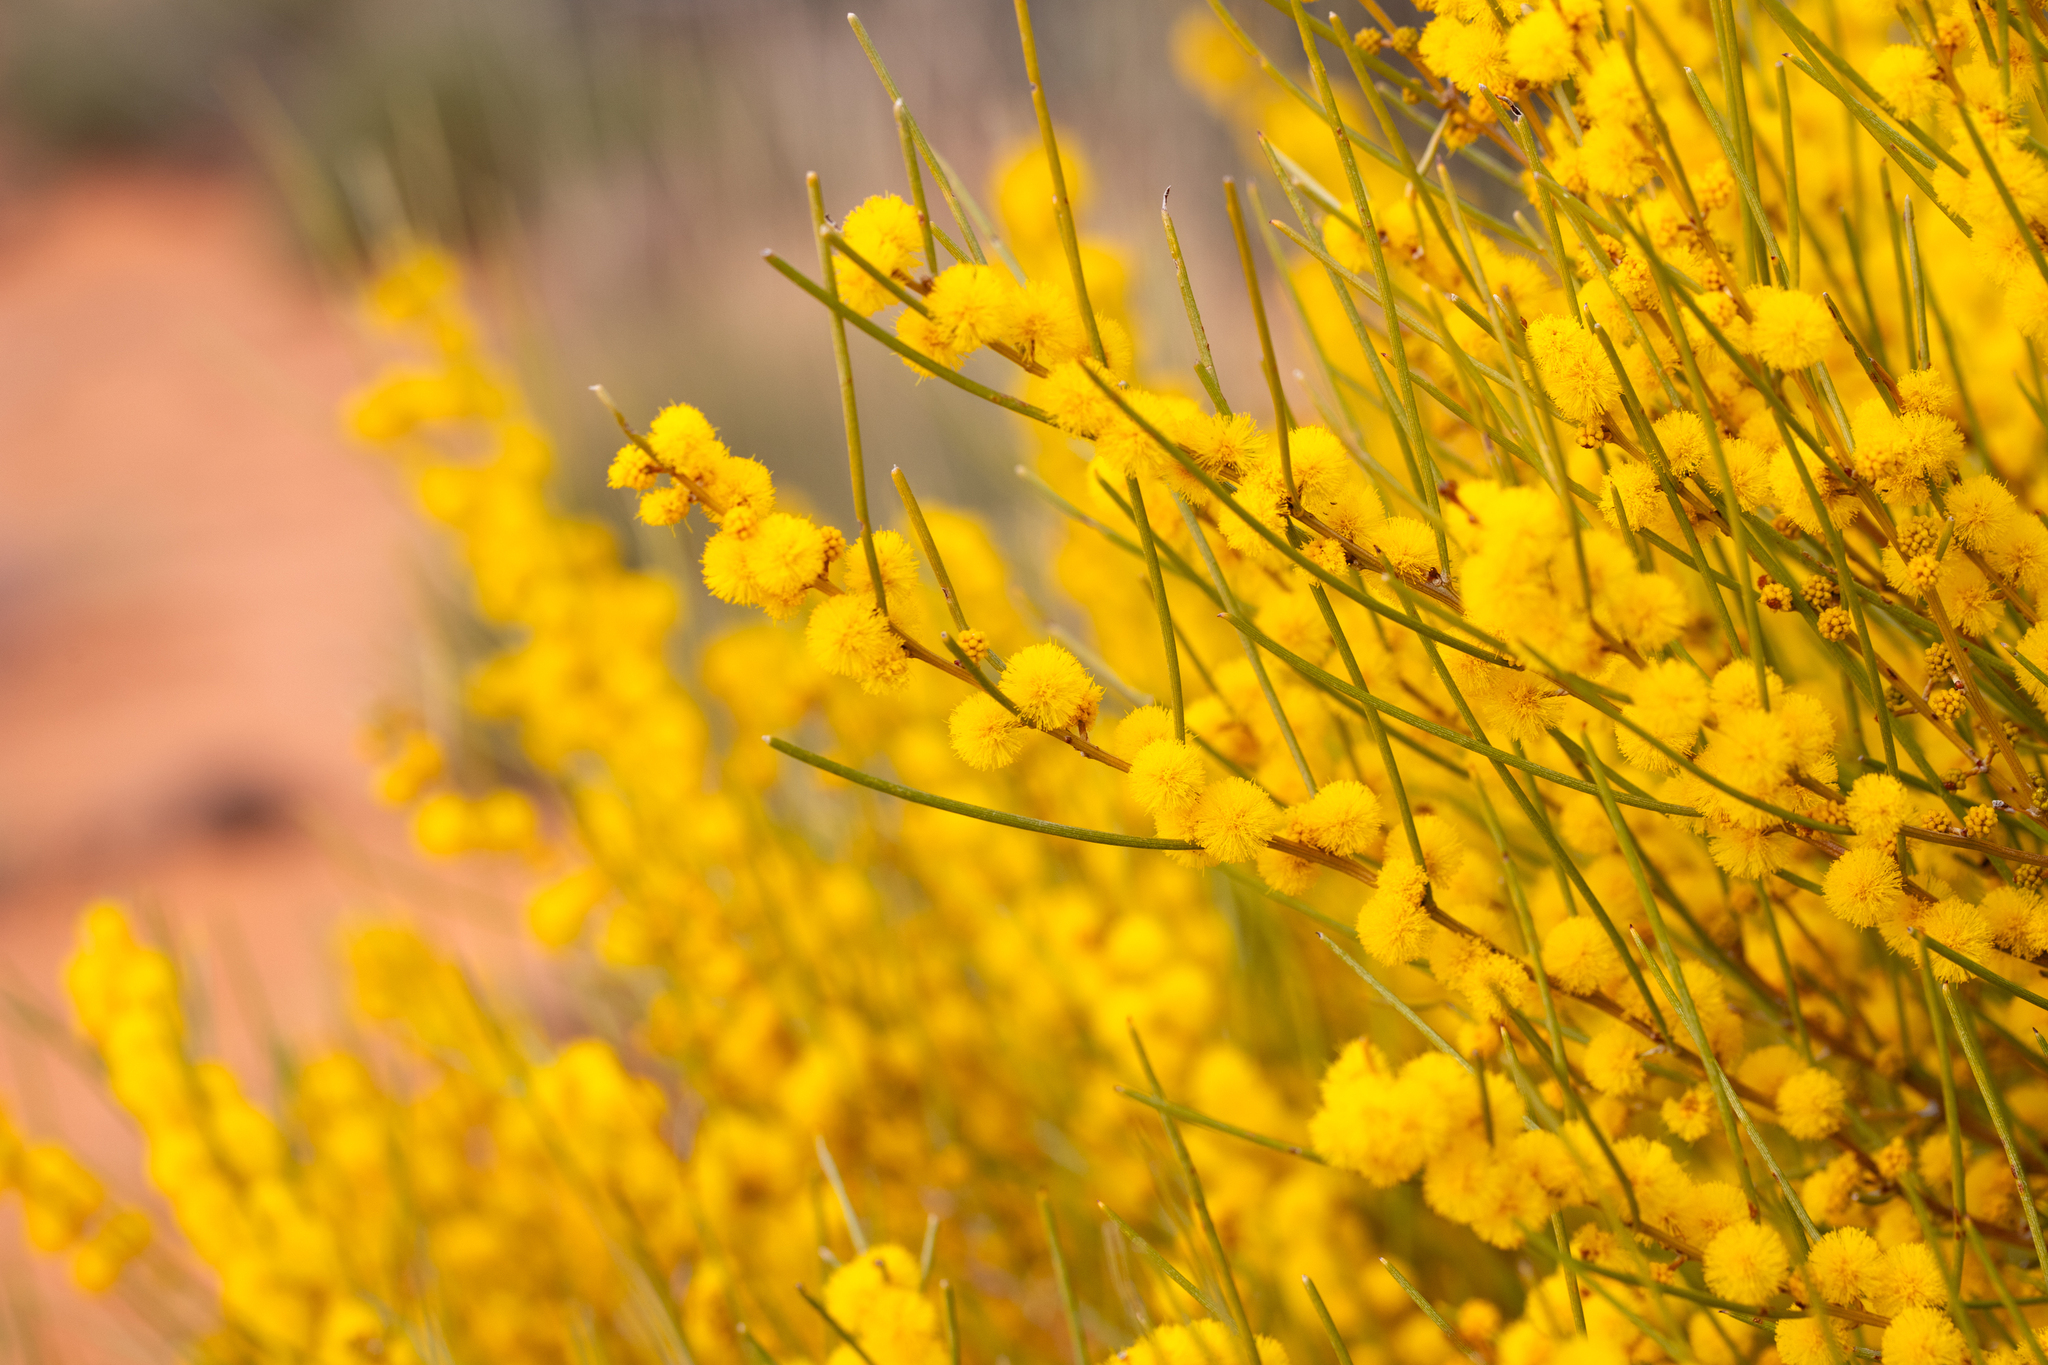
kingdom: Plantae
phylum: Tracheophyta
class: Magnoliopsida
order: Fabales
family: Fabaceae
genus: Acacia
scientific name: Acacia rigens
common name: Nealie
